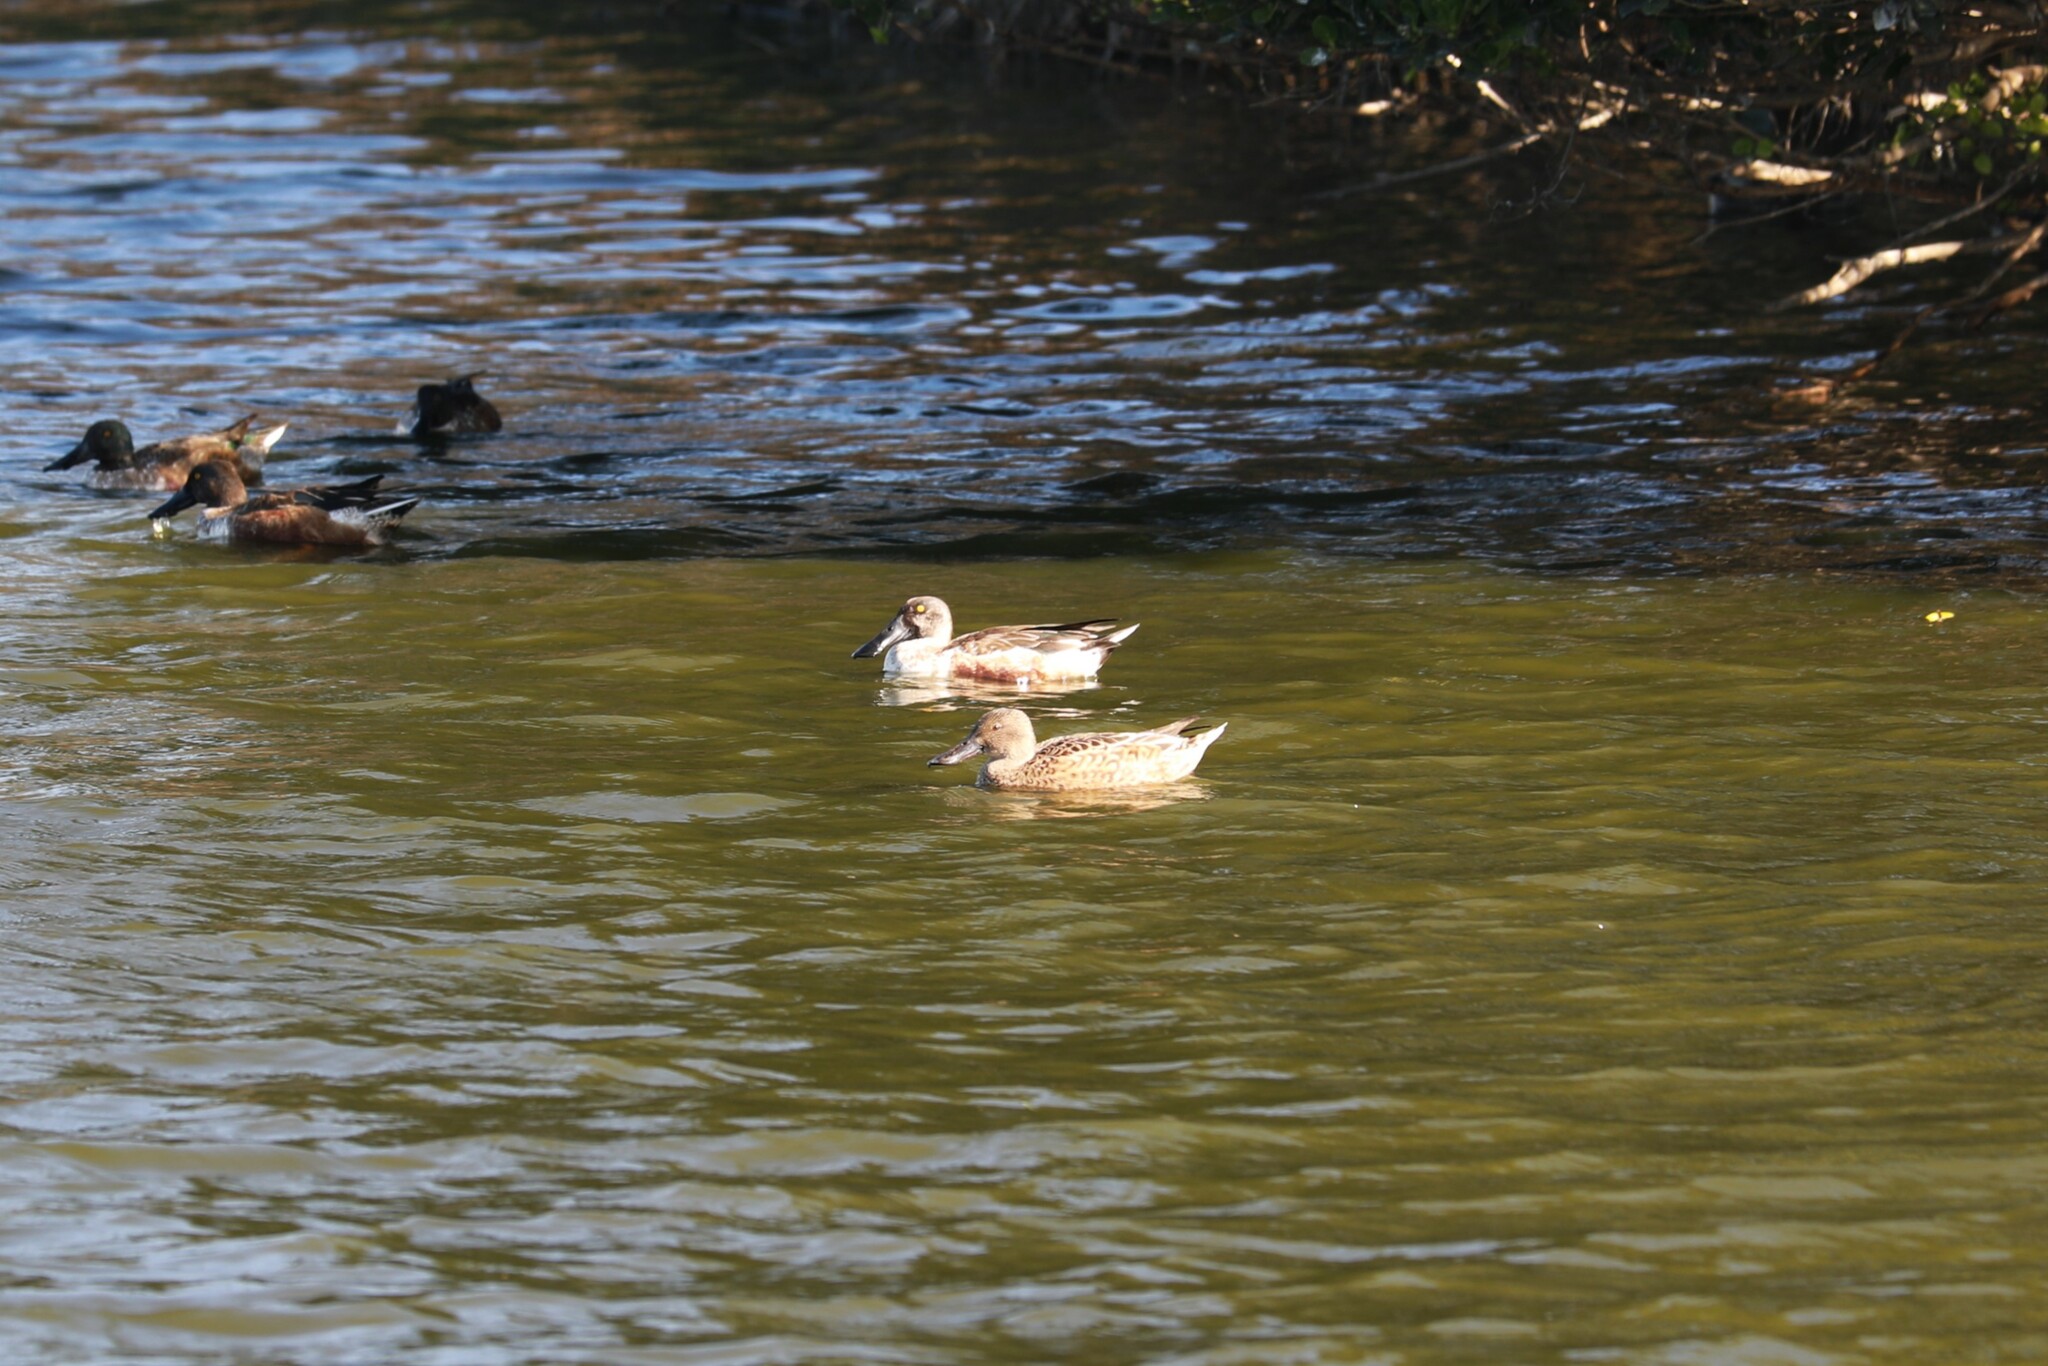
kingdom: Animalia
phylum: Chordata
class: Aves
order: Anseriformes
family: Anatidae
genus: Spatula
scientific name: Spatula clypeata
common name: Northern shoveler
